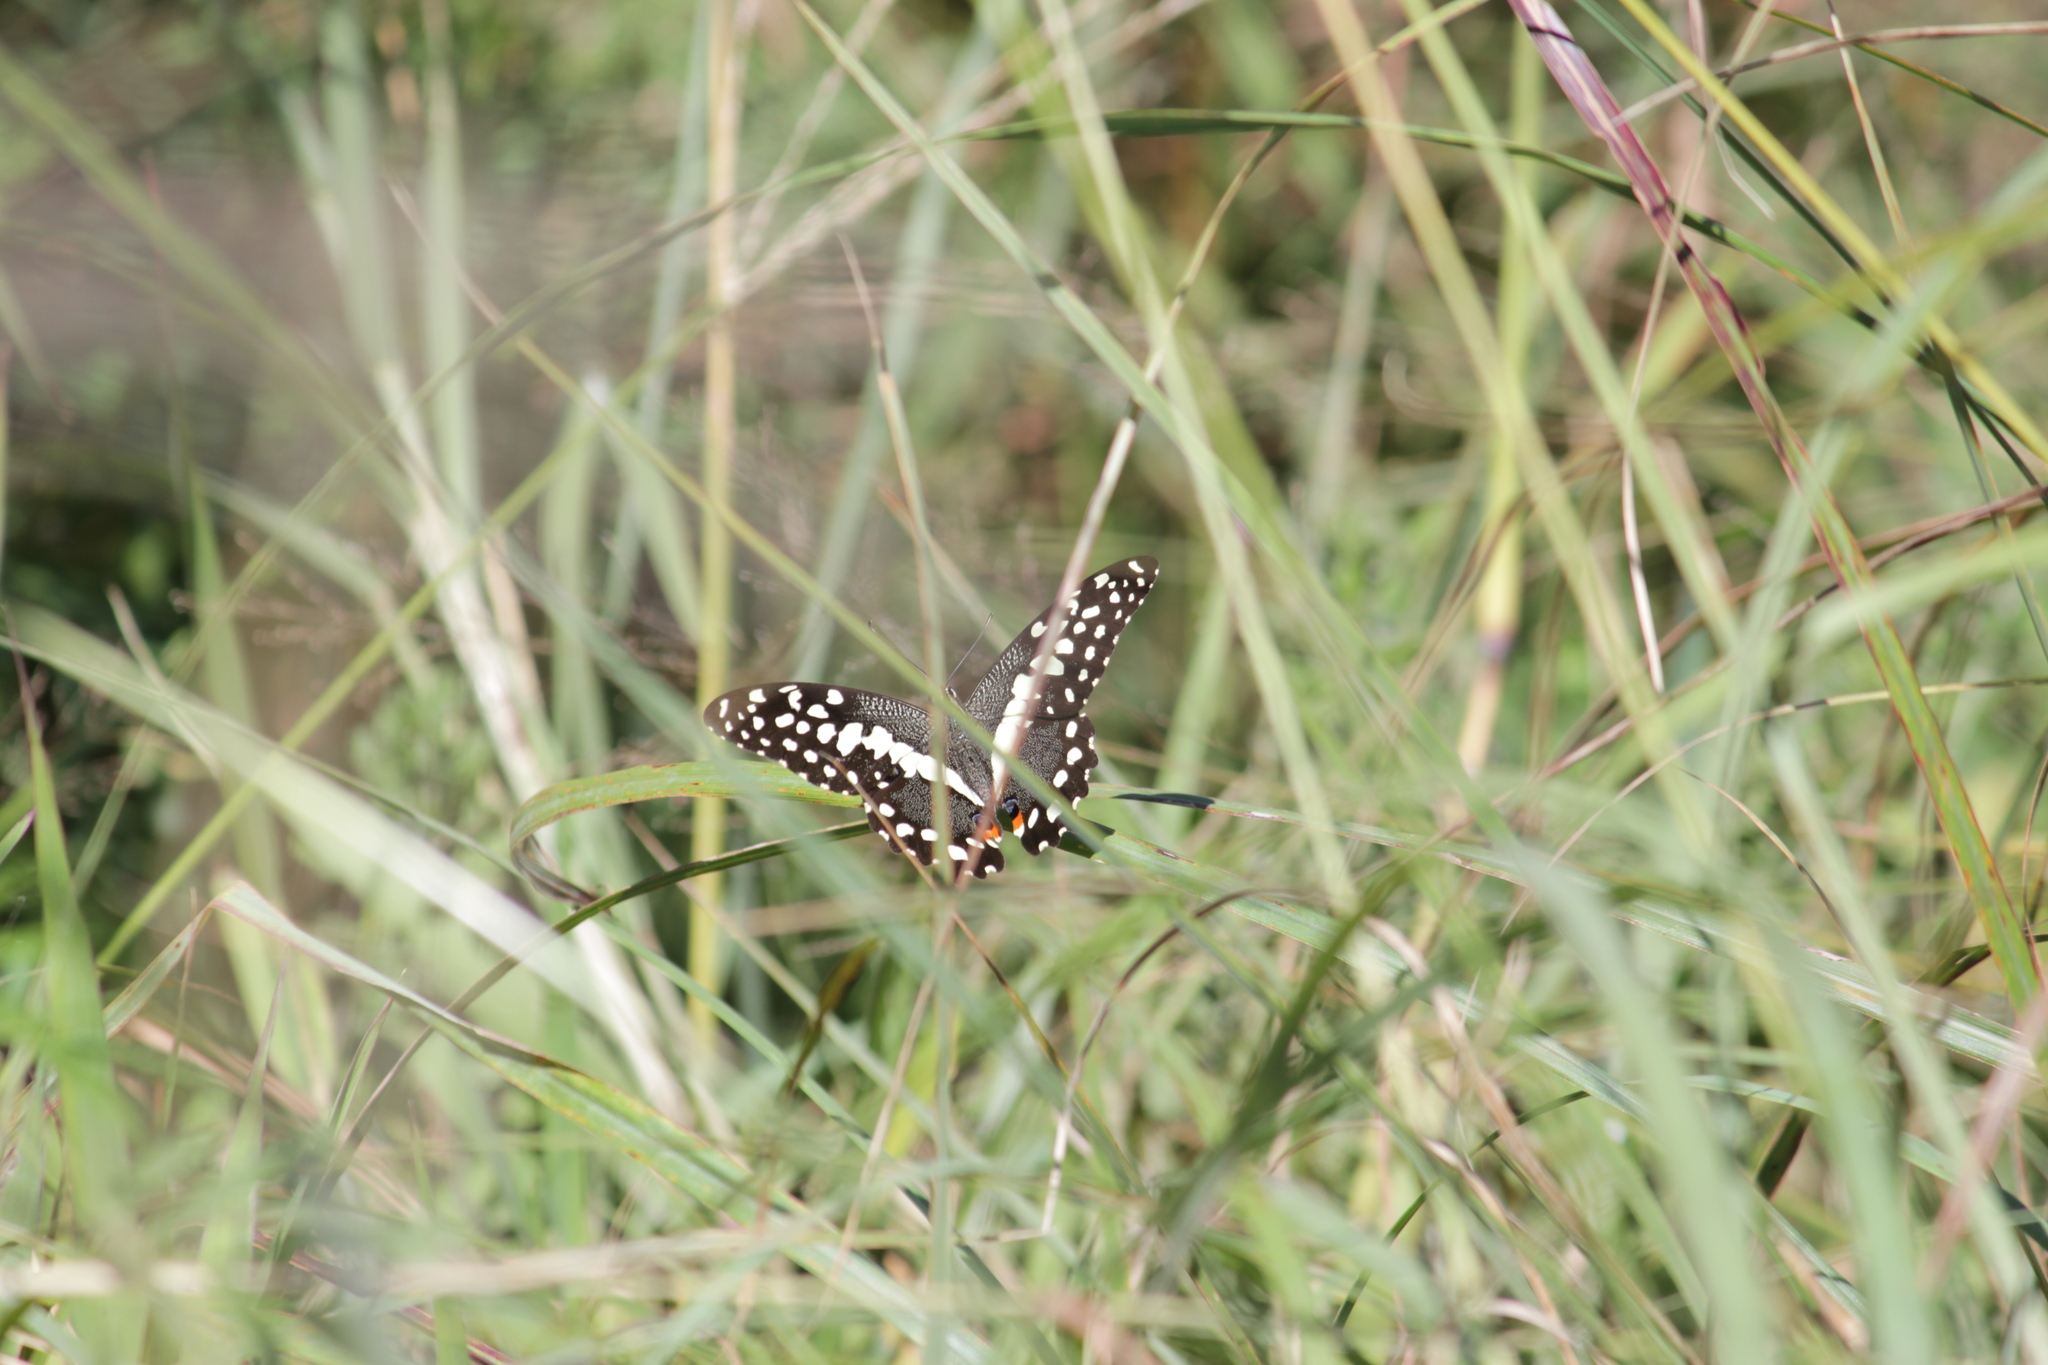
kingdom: Animalia
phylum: Arthropoda
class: Insecta
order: Lepidoptera
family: Papilionidae
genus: Papilio
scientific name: Papilio demodocus
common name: Christmas butterfly
